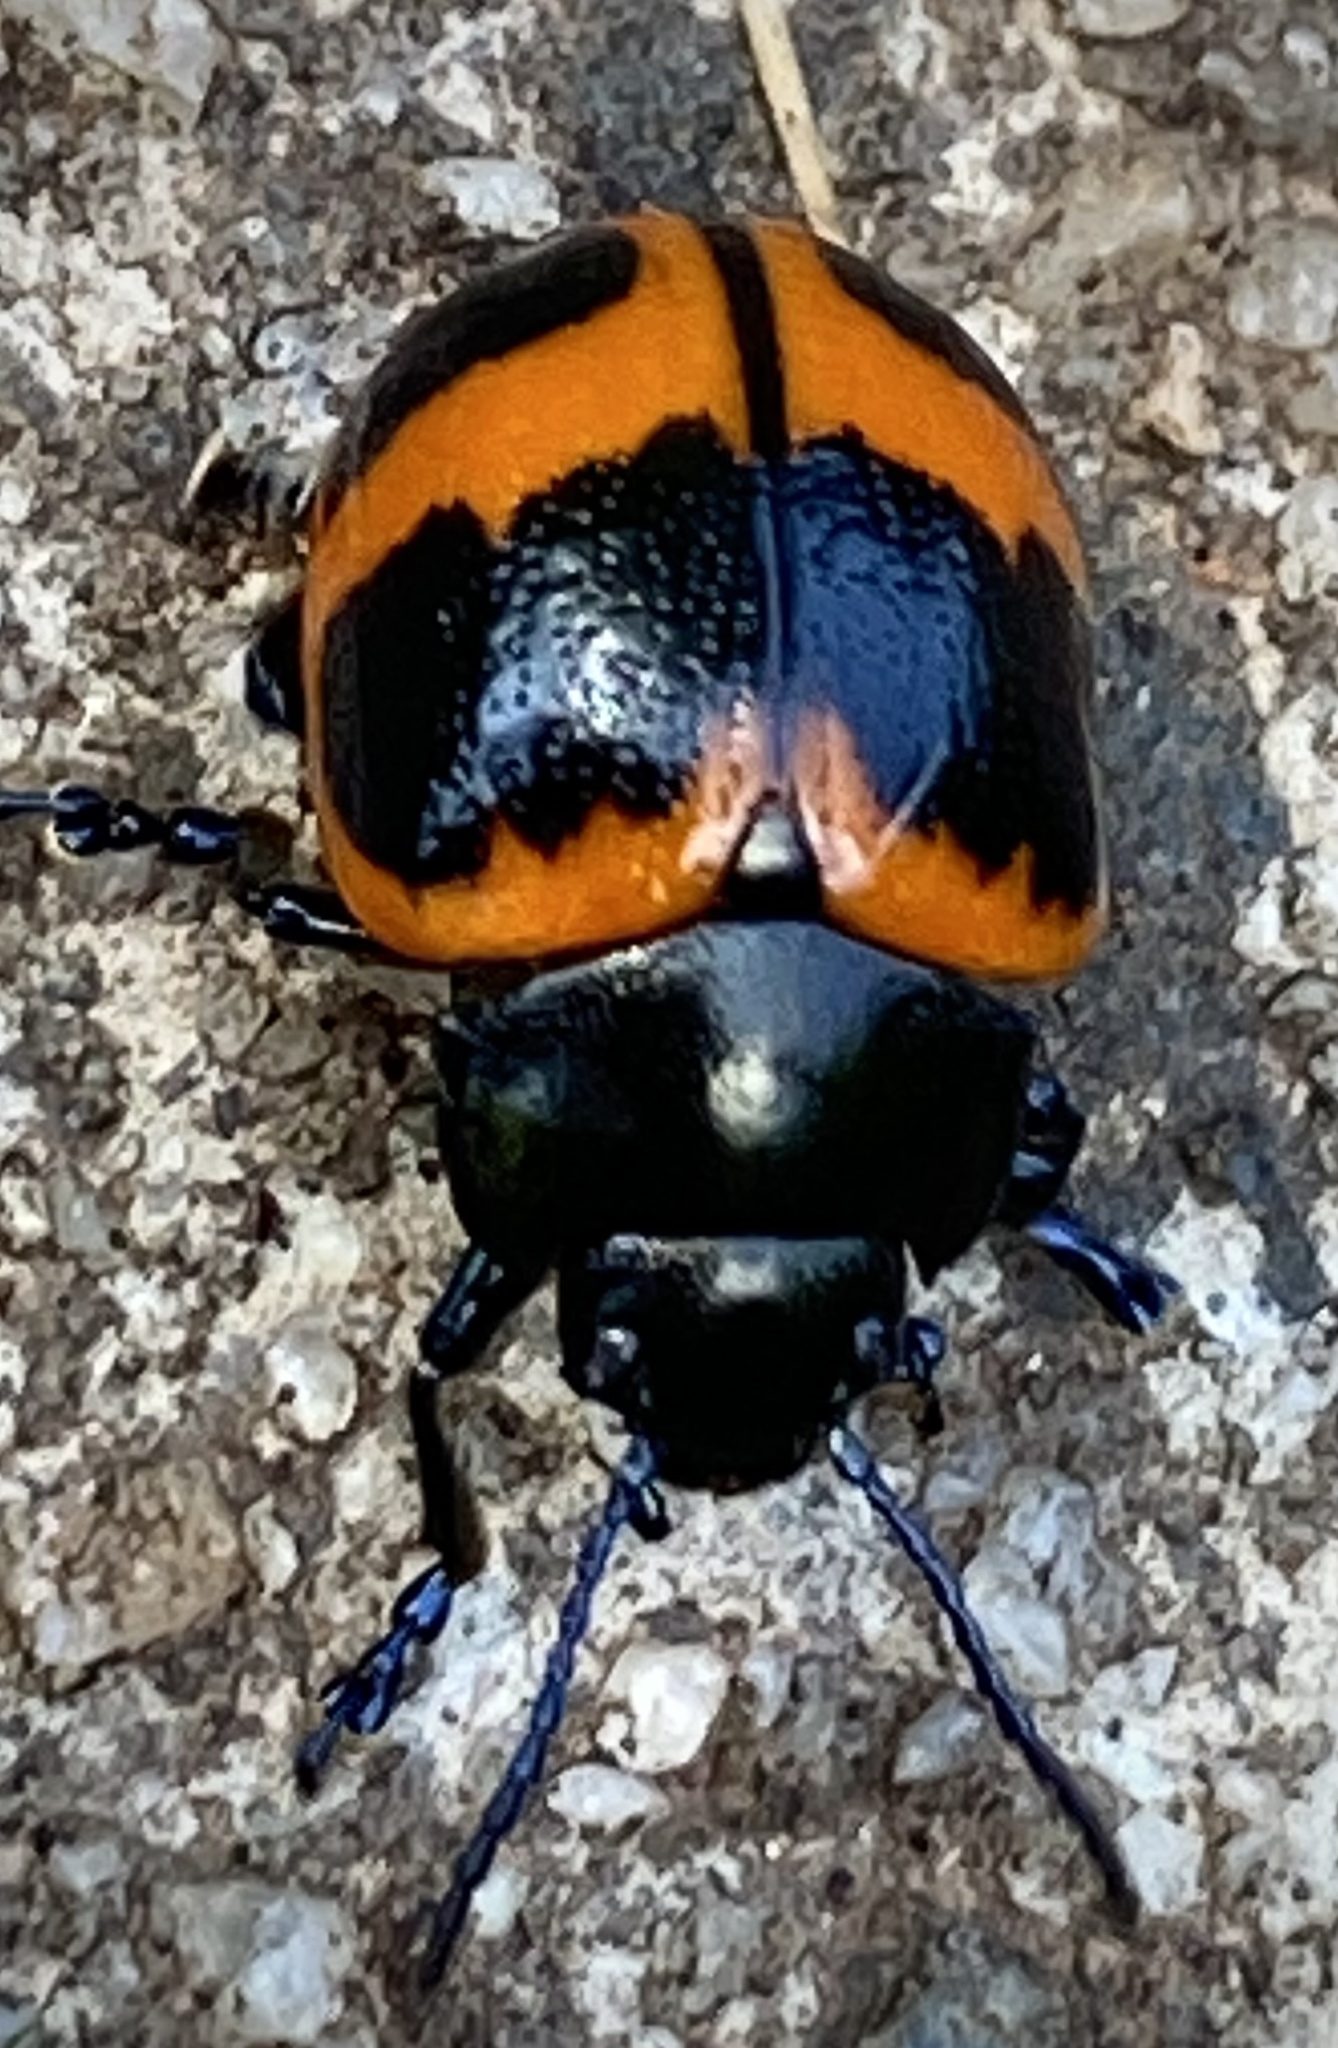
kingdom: Animalia
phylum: Arthropoda
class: Insecta
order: Coleoptera
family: Chrysomelidae
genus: Labidomera
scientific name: Labidomera clivicollis
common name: Swamp milkweed leaf beetle
